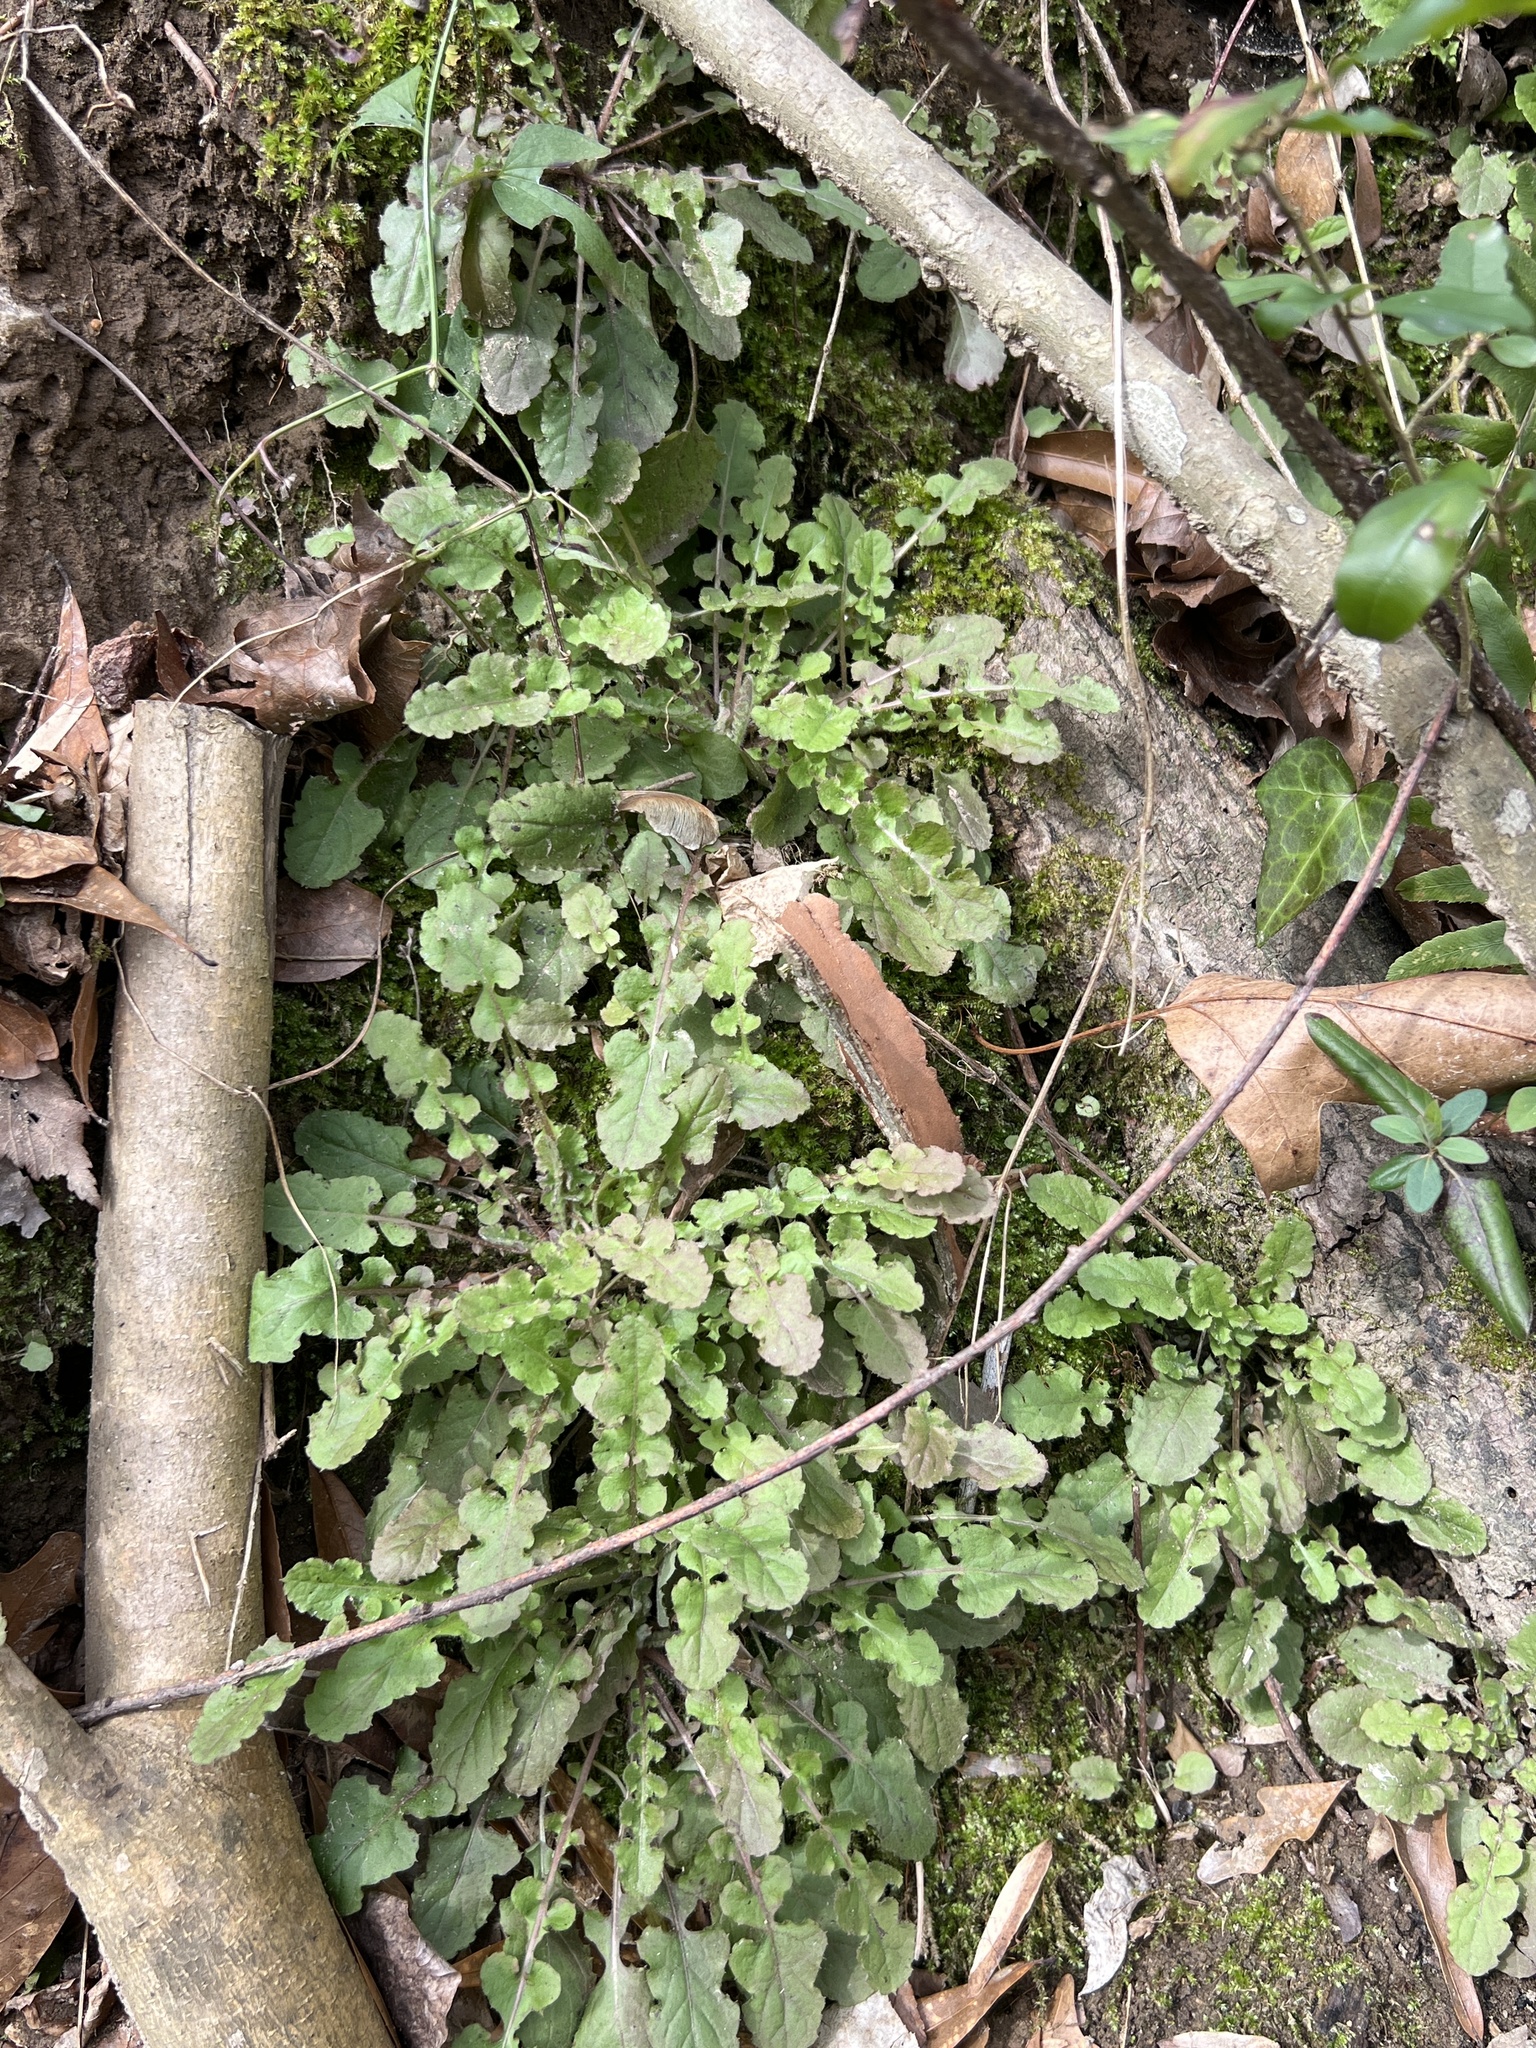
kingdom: Plantae
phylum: Tracheophyta
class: Magnoliopsida
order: Asterales
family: Asteraceae
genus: Youngia
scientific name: Youngia japonica
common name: Oriental false hawksbeard
